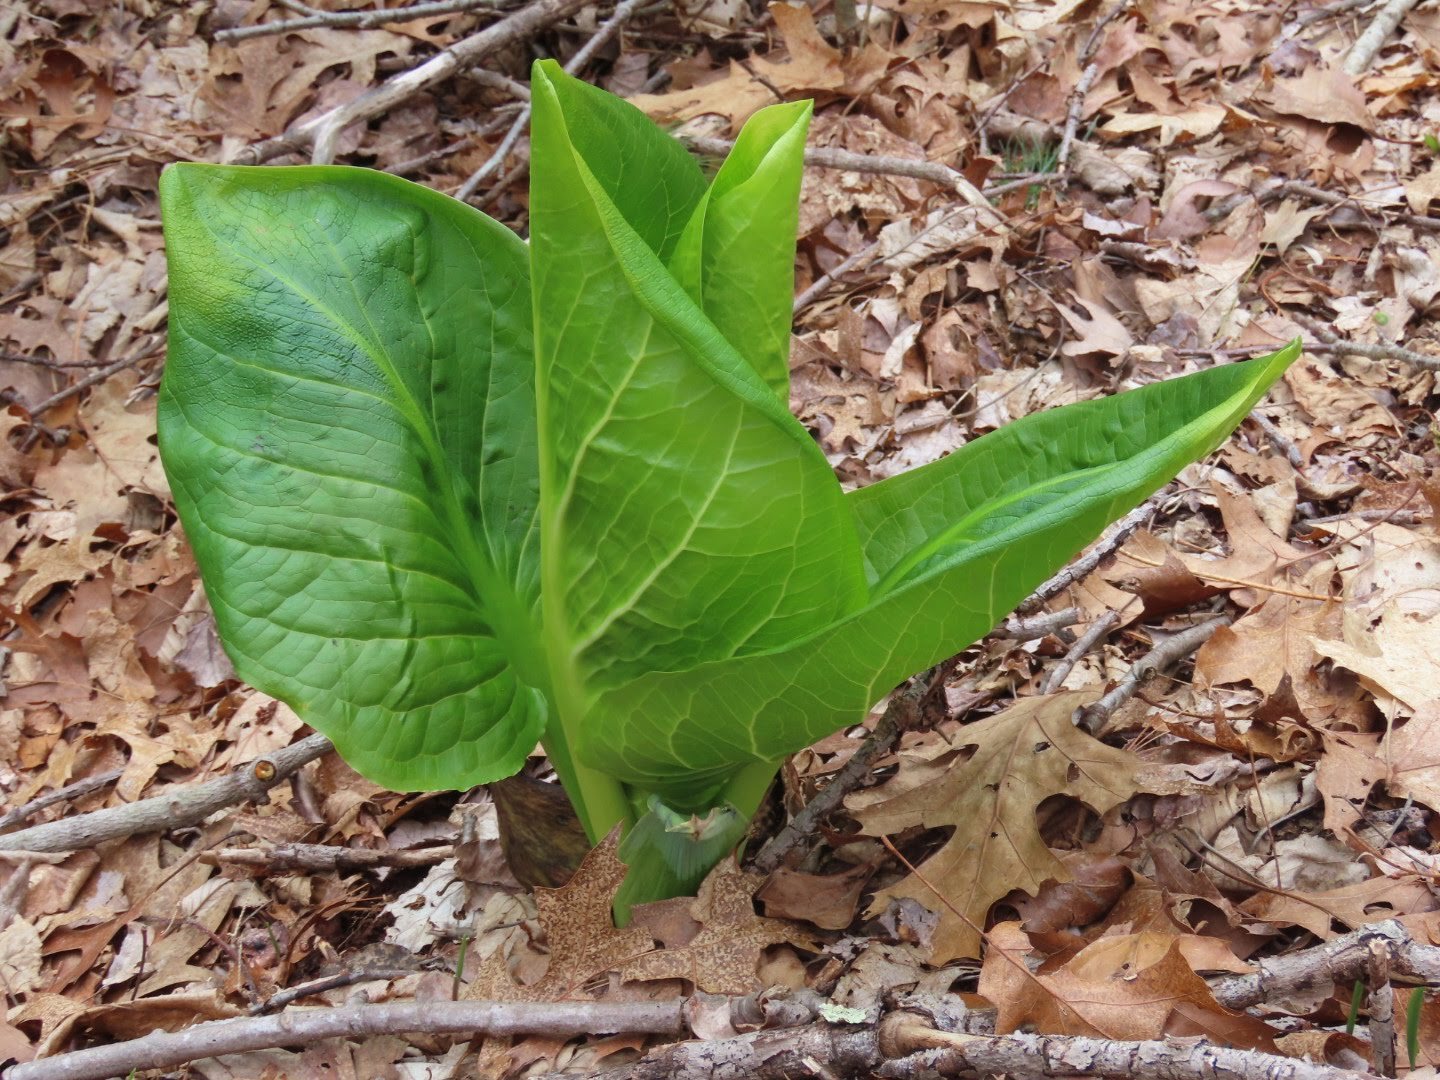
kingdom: Plantae
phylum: Tracheophyta
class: Liliopsida
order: Alismatales
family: Araceae
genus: Symplocarpus
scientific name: Symplocarpus foetidus
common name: Eastern skunk cabbage
